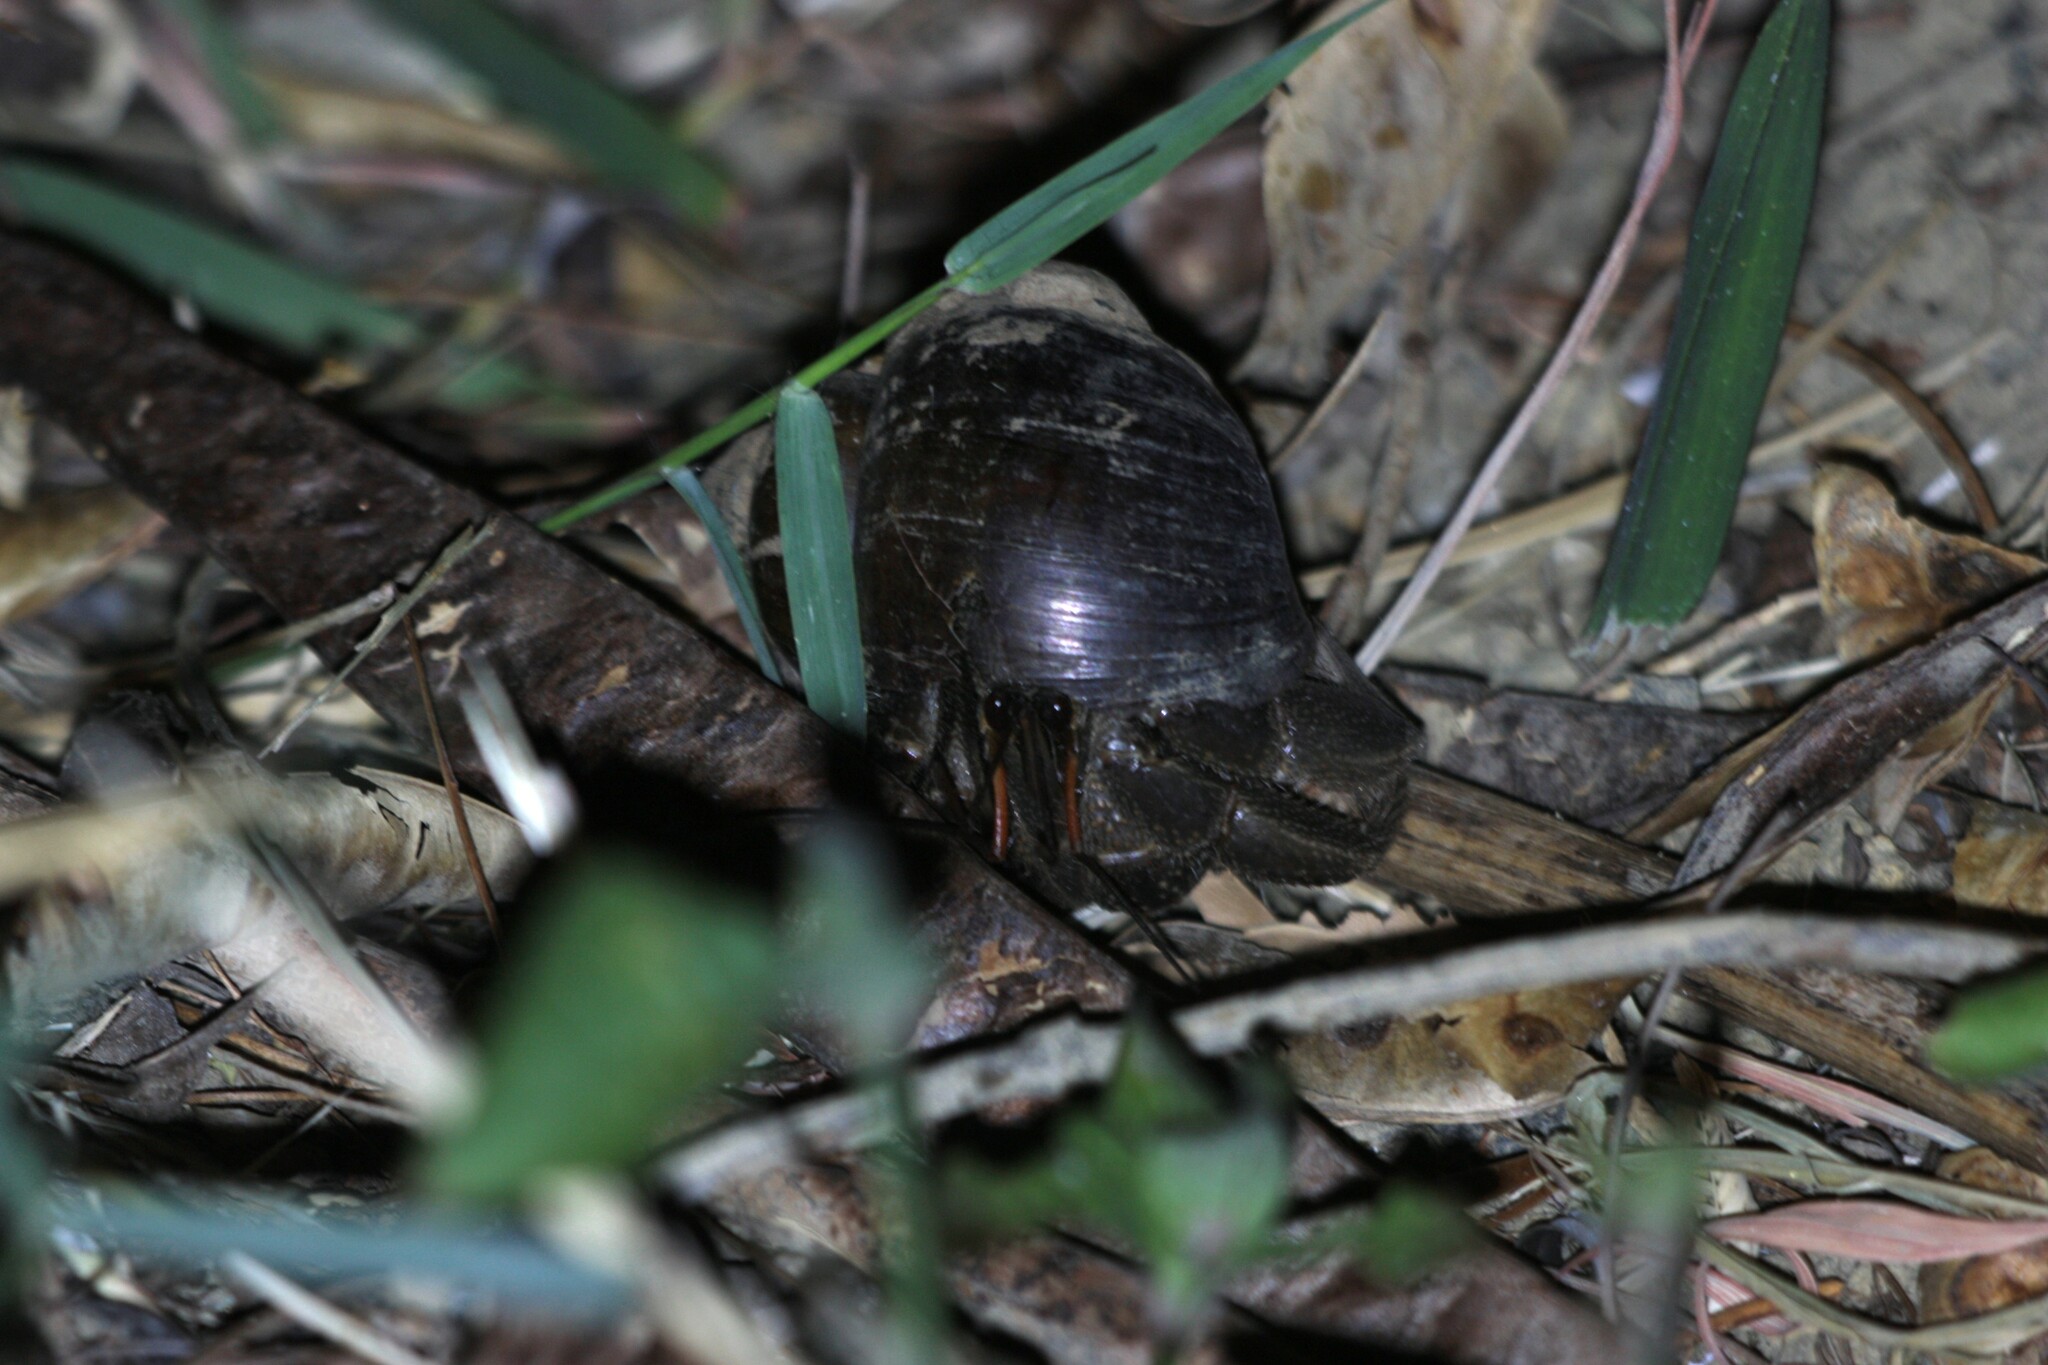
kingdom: Animalia
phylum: Arthropoda
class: Malacostraca
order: Decapoda
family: Coenobitidae
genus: Coenobita
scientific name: Coenobita cavipes
